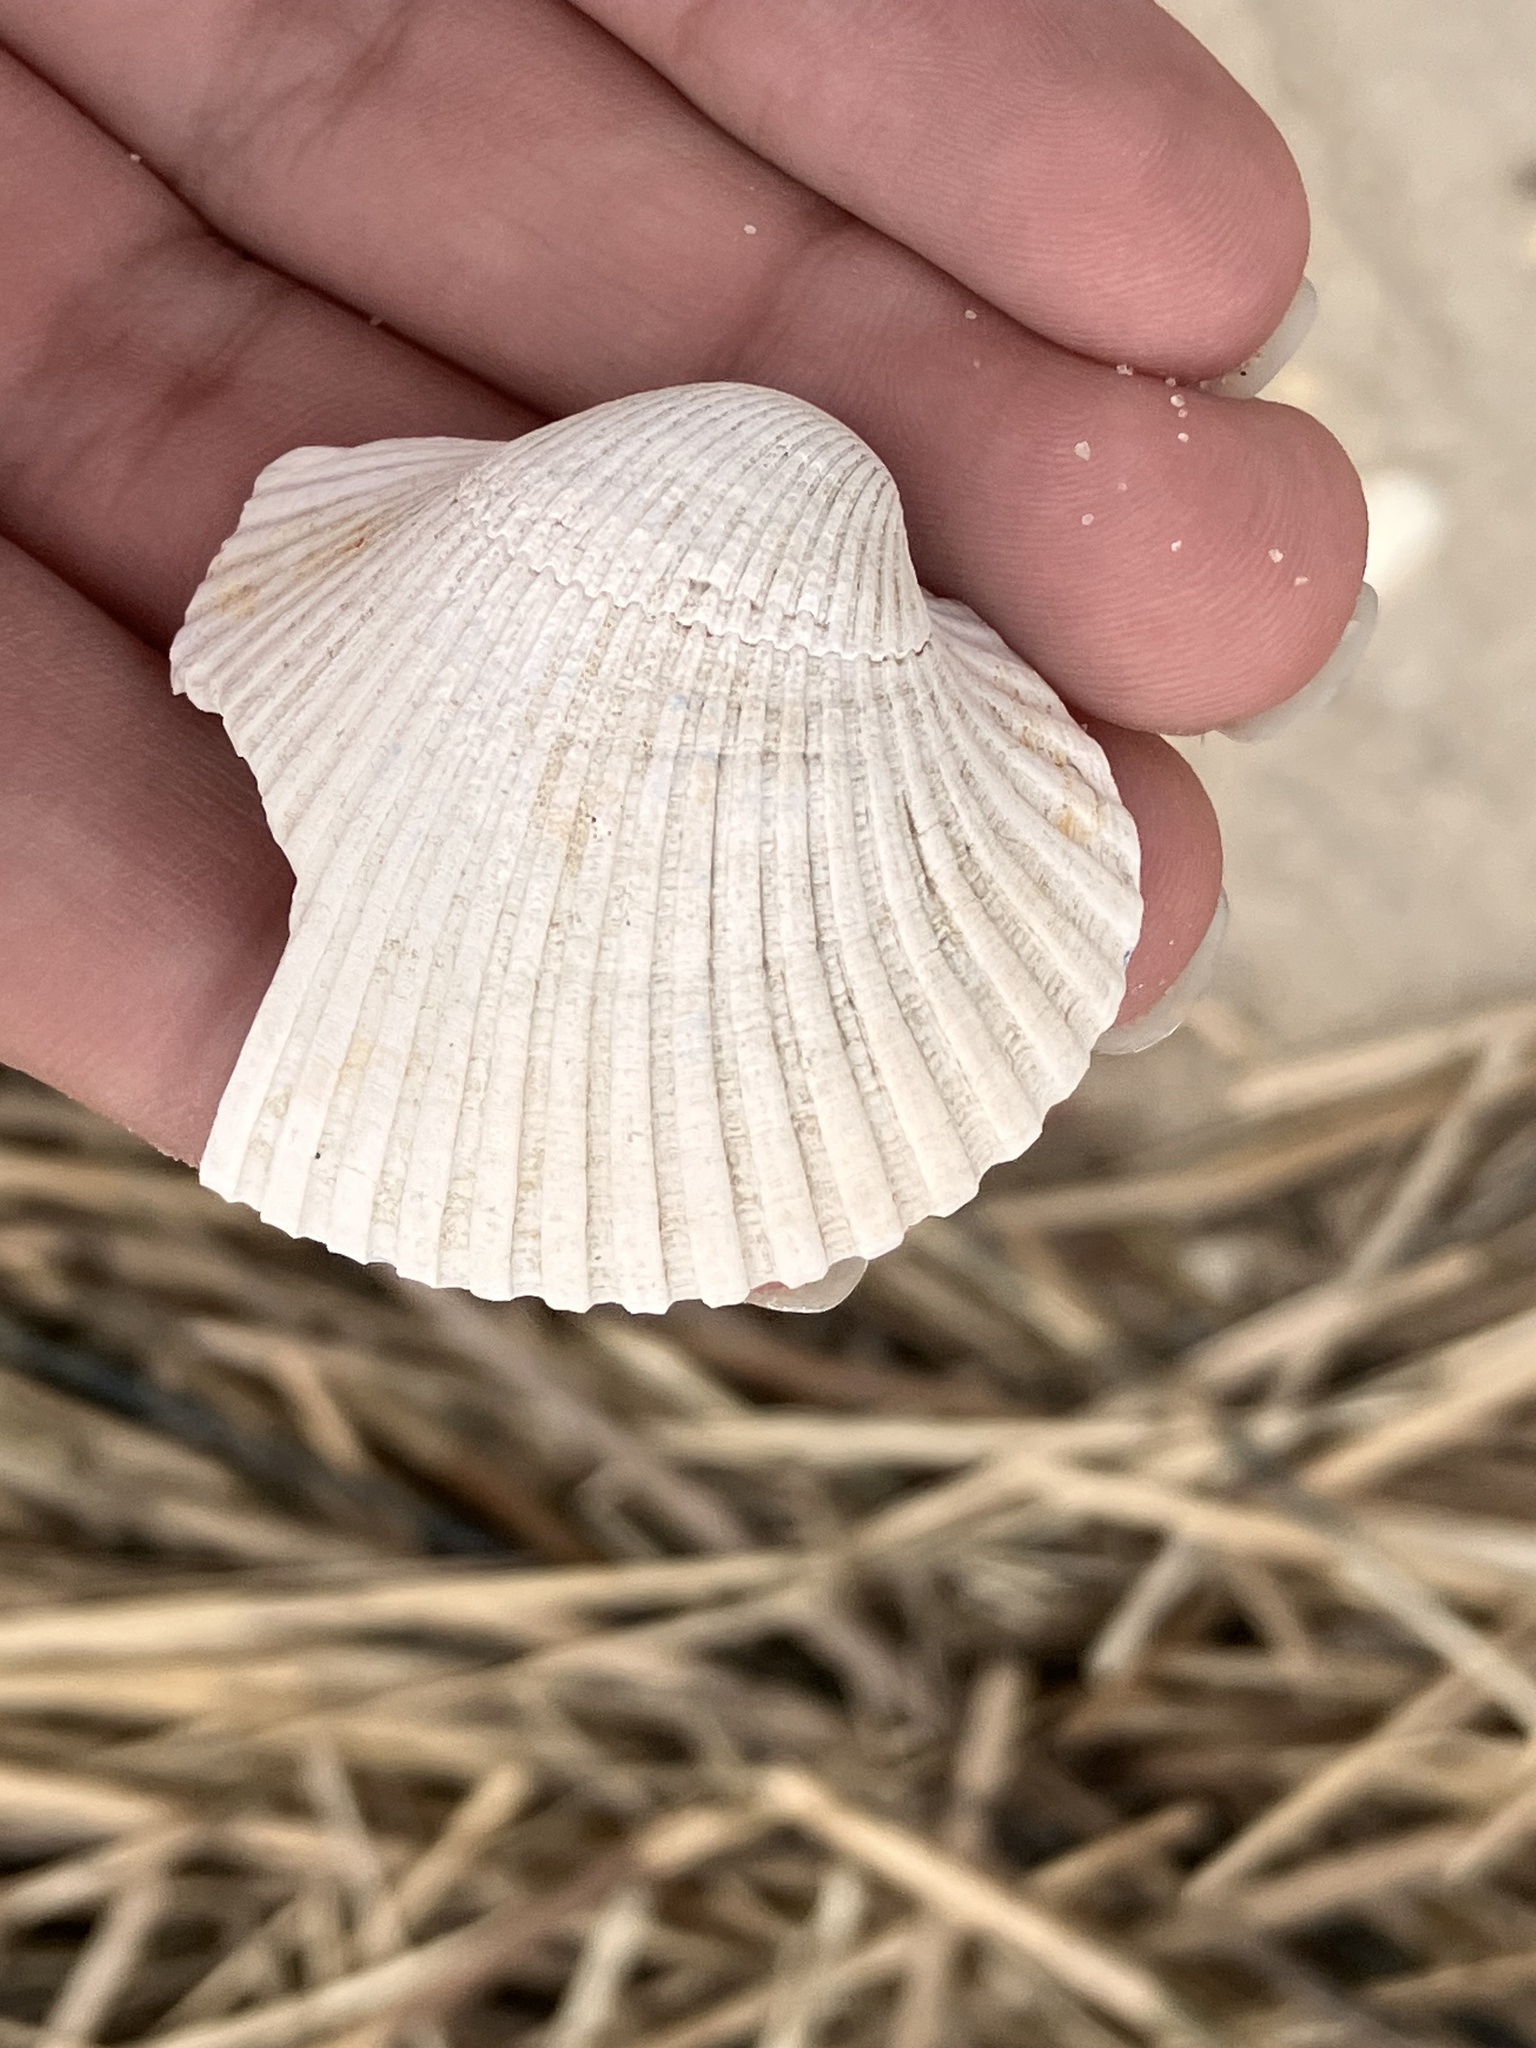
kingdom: Animalia
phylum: Mollusca
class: Bivalvia
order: Arcida
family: Arcidae
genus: Lunarca
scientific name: Lunarca ovalis
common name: Blood ark
